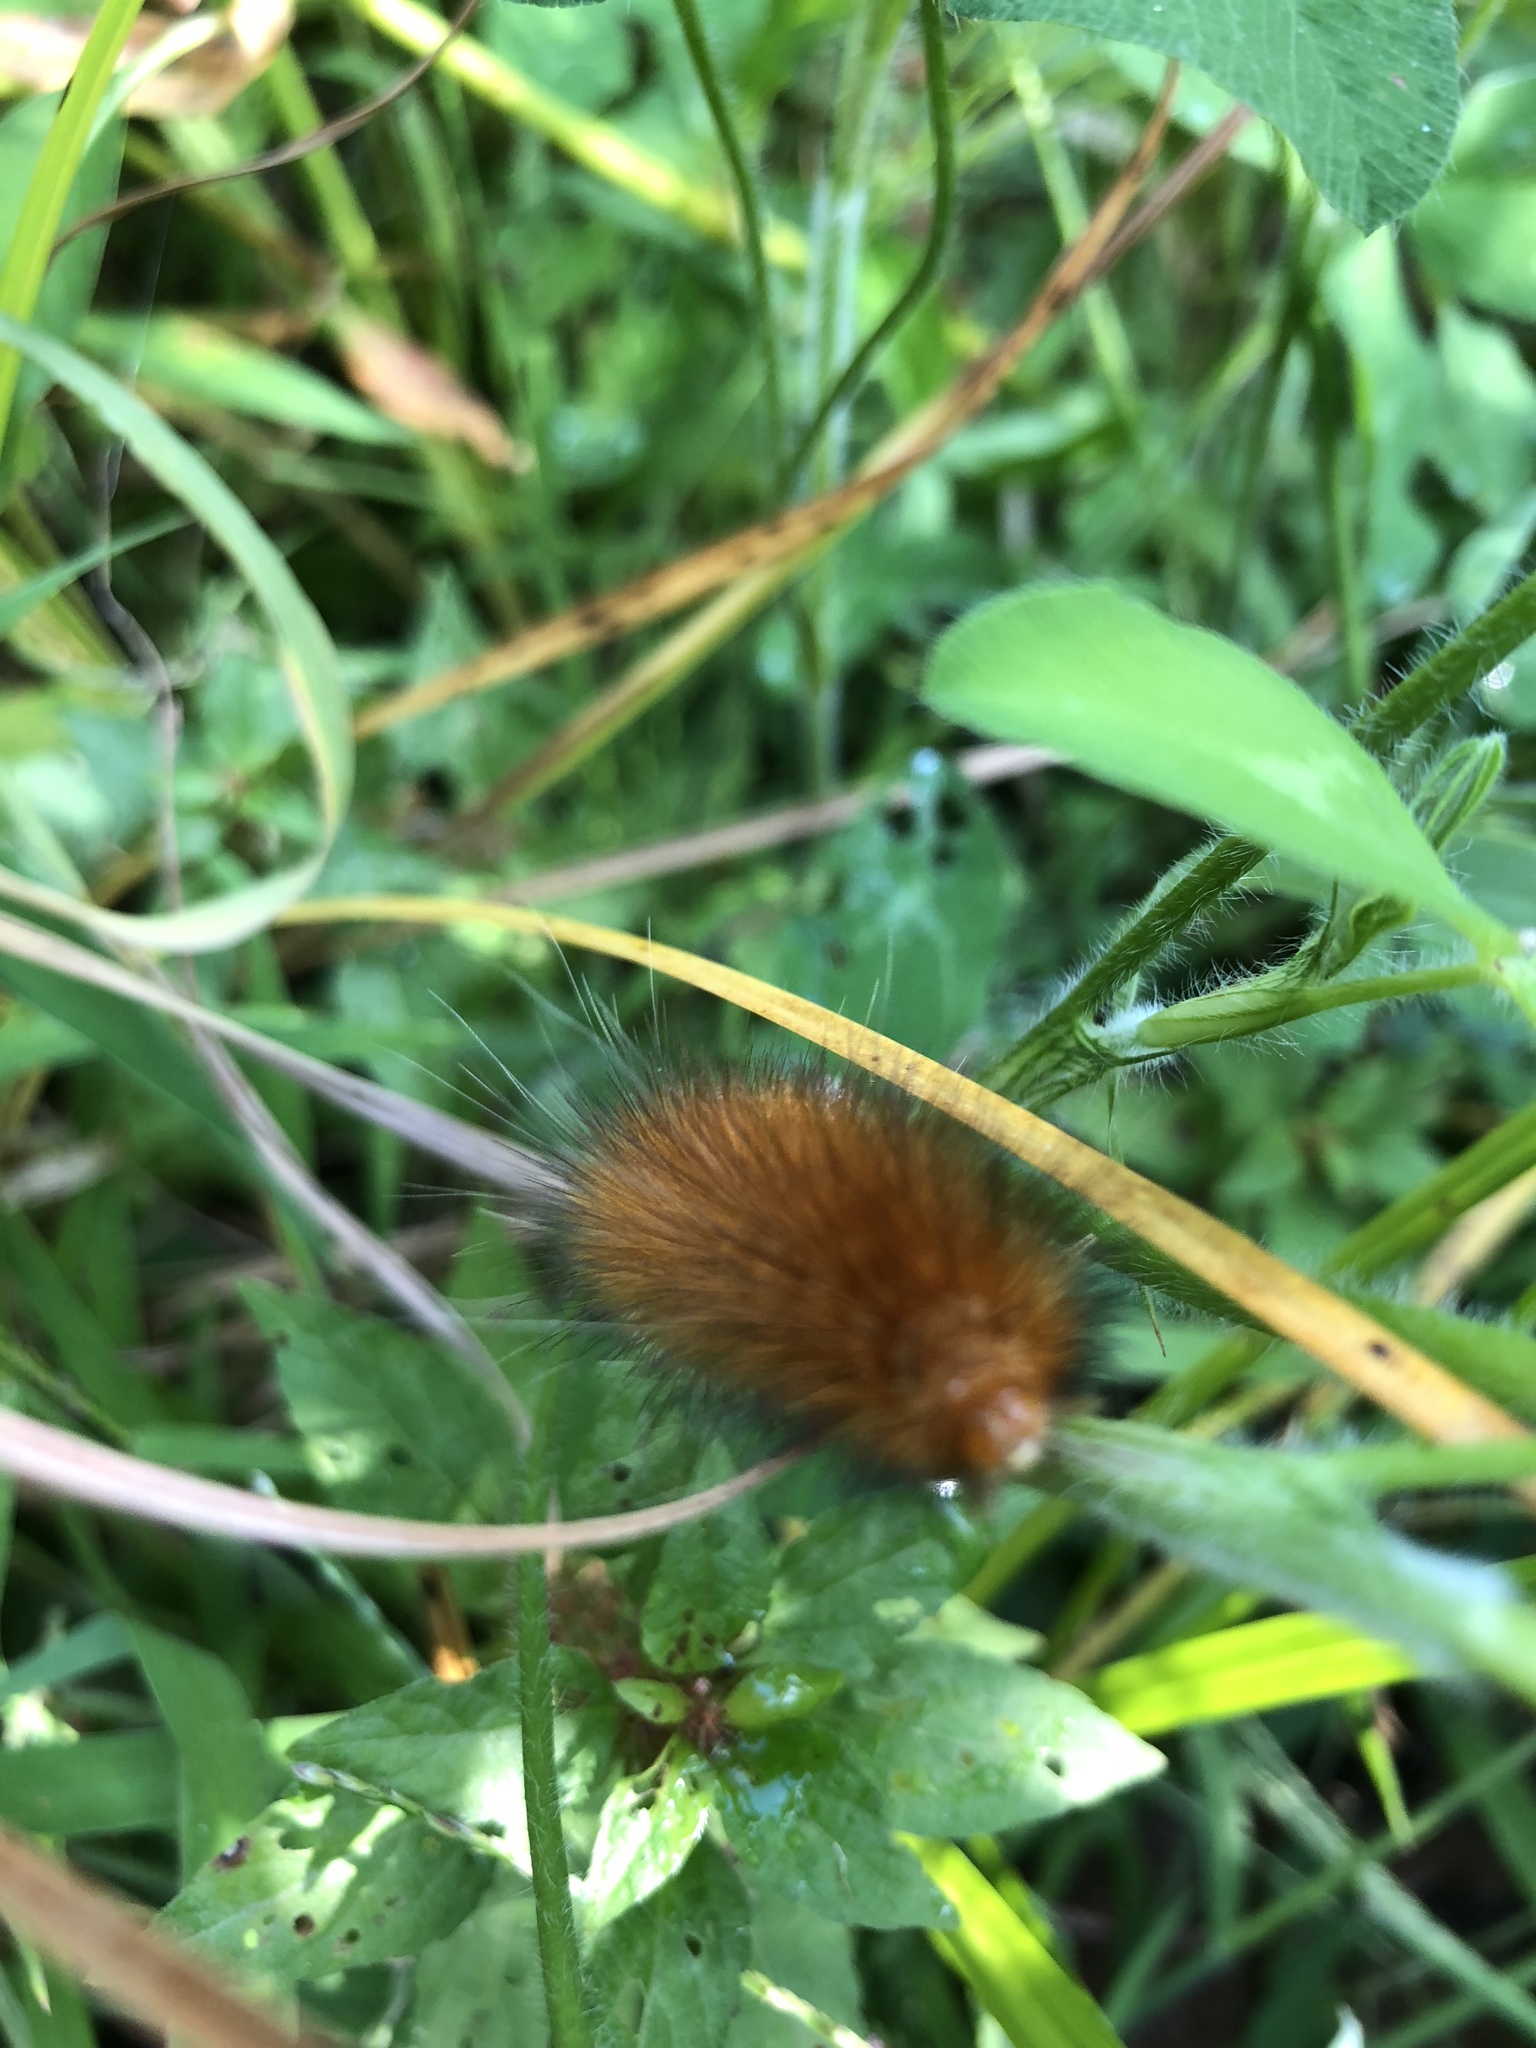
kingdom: Animalia
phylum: Arthropoda
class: Insecta
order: Lepidoptera
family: Erebidae
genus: Spilosoma
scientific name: Spilosoma virginica
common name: Virginia tiger moth
